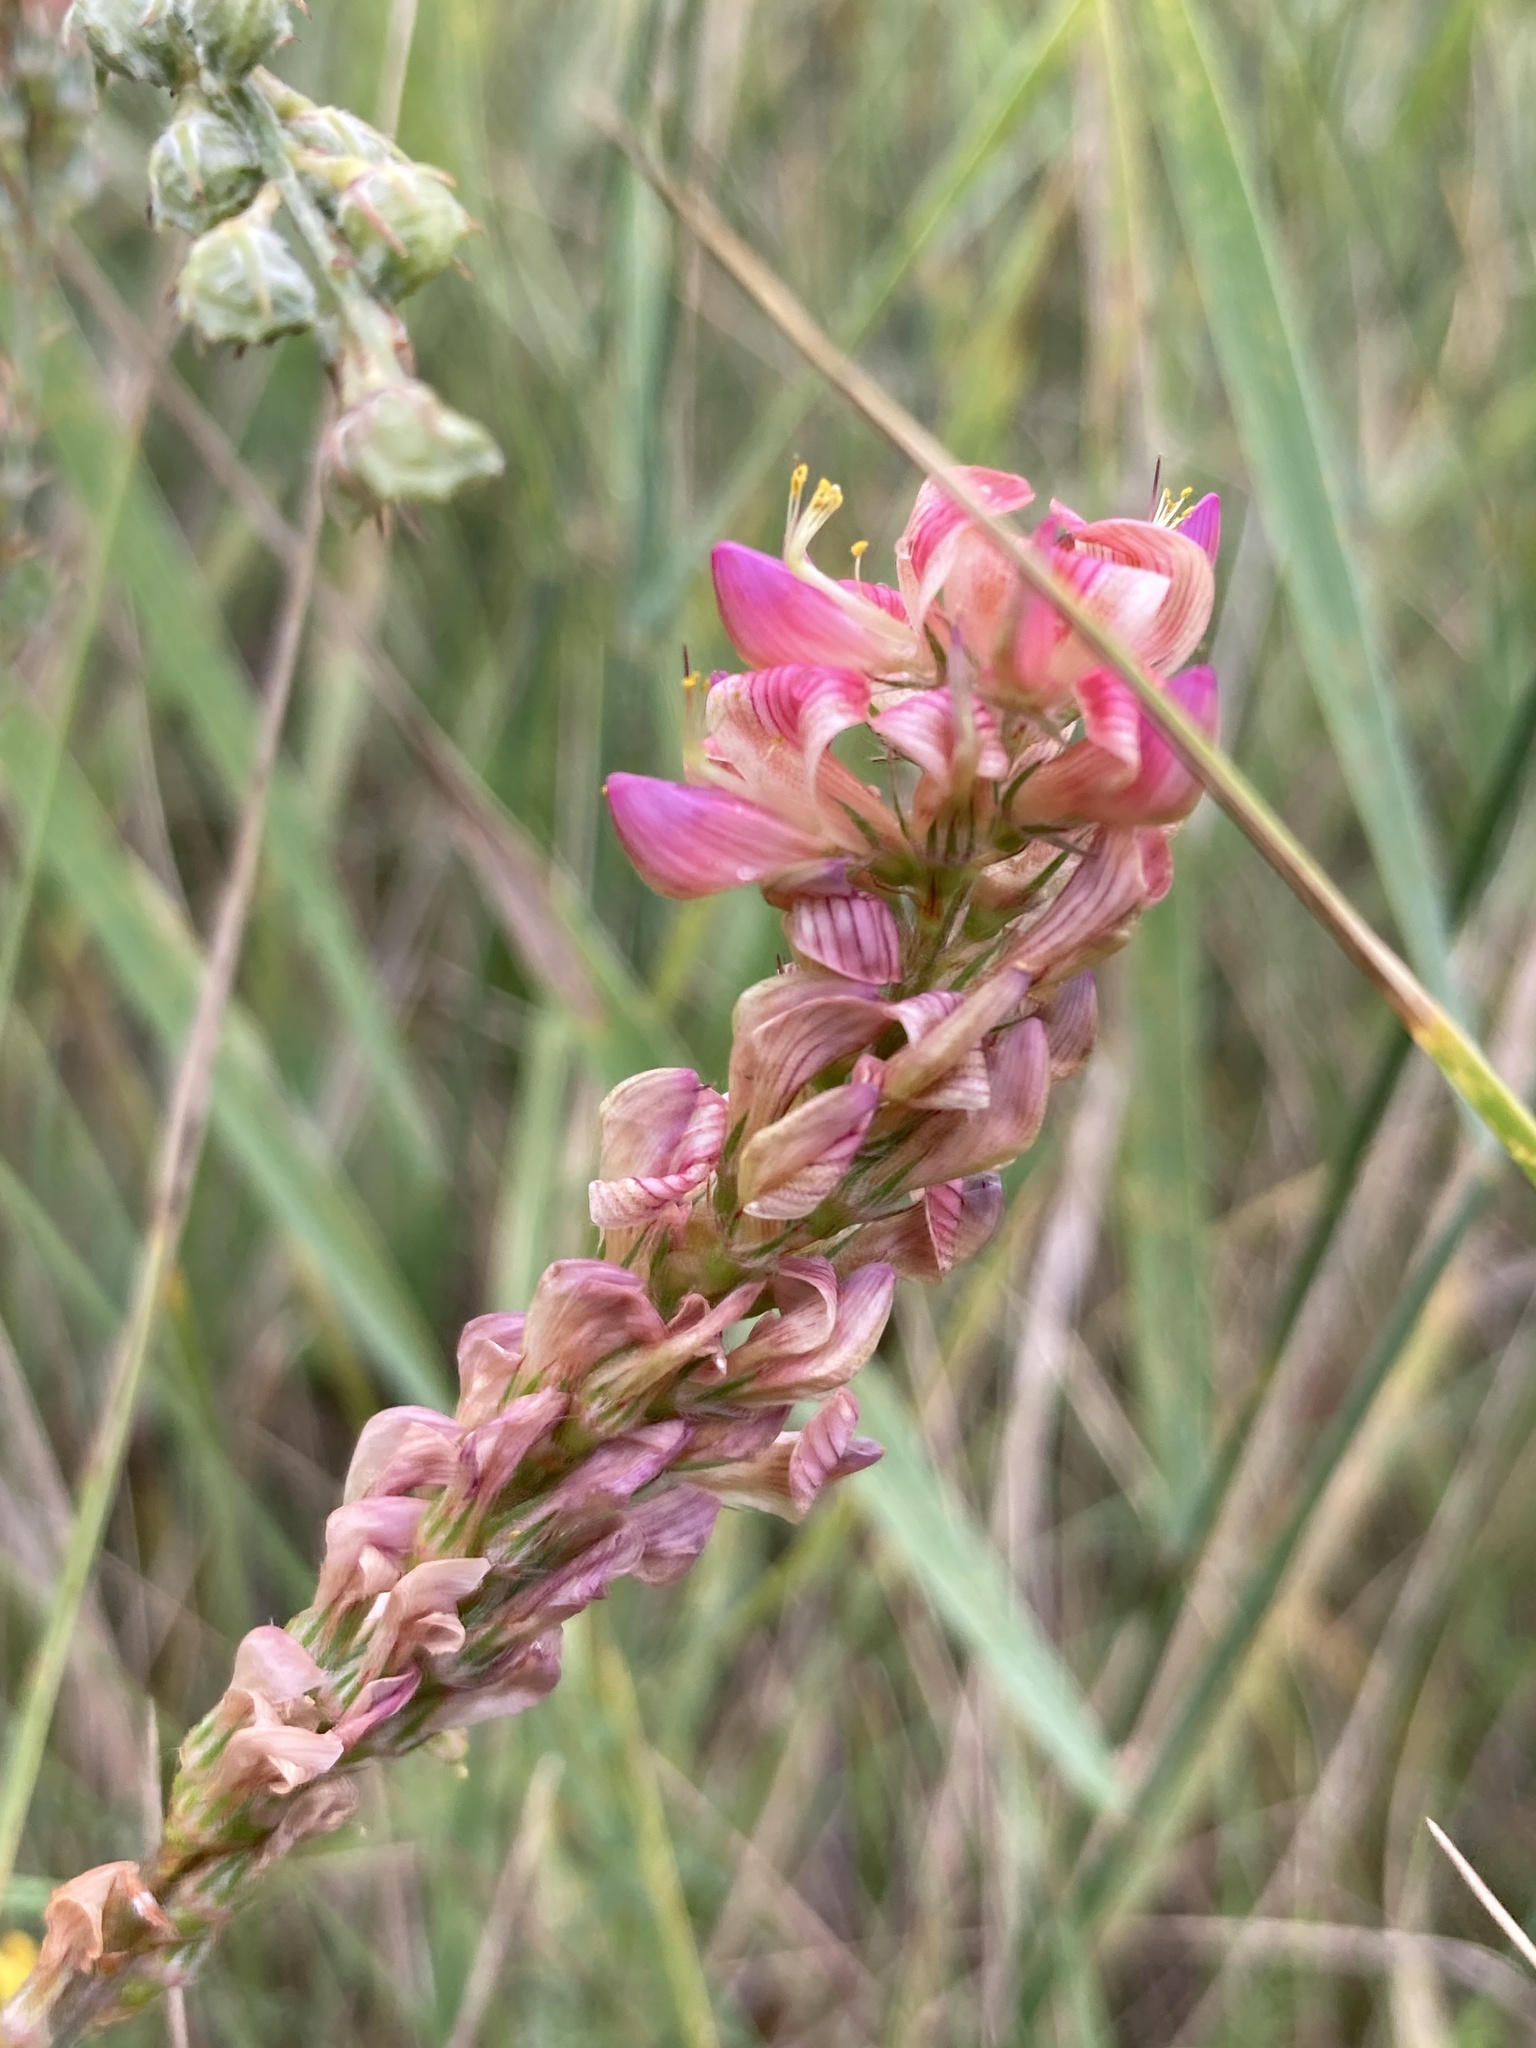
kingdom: Plantae
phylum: Tracheophyta
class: Magnoliopsida
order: Fabales
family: Fabaceae
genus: Onobrychis
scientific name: Onobrychis viciifolia
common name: Sainfoin
